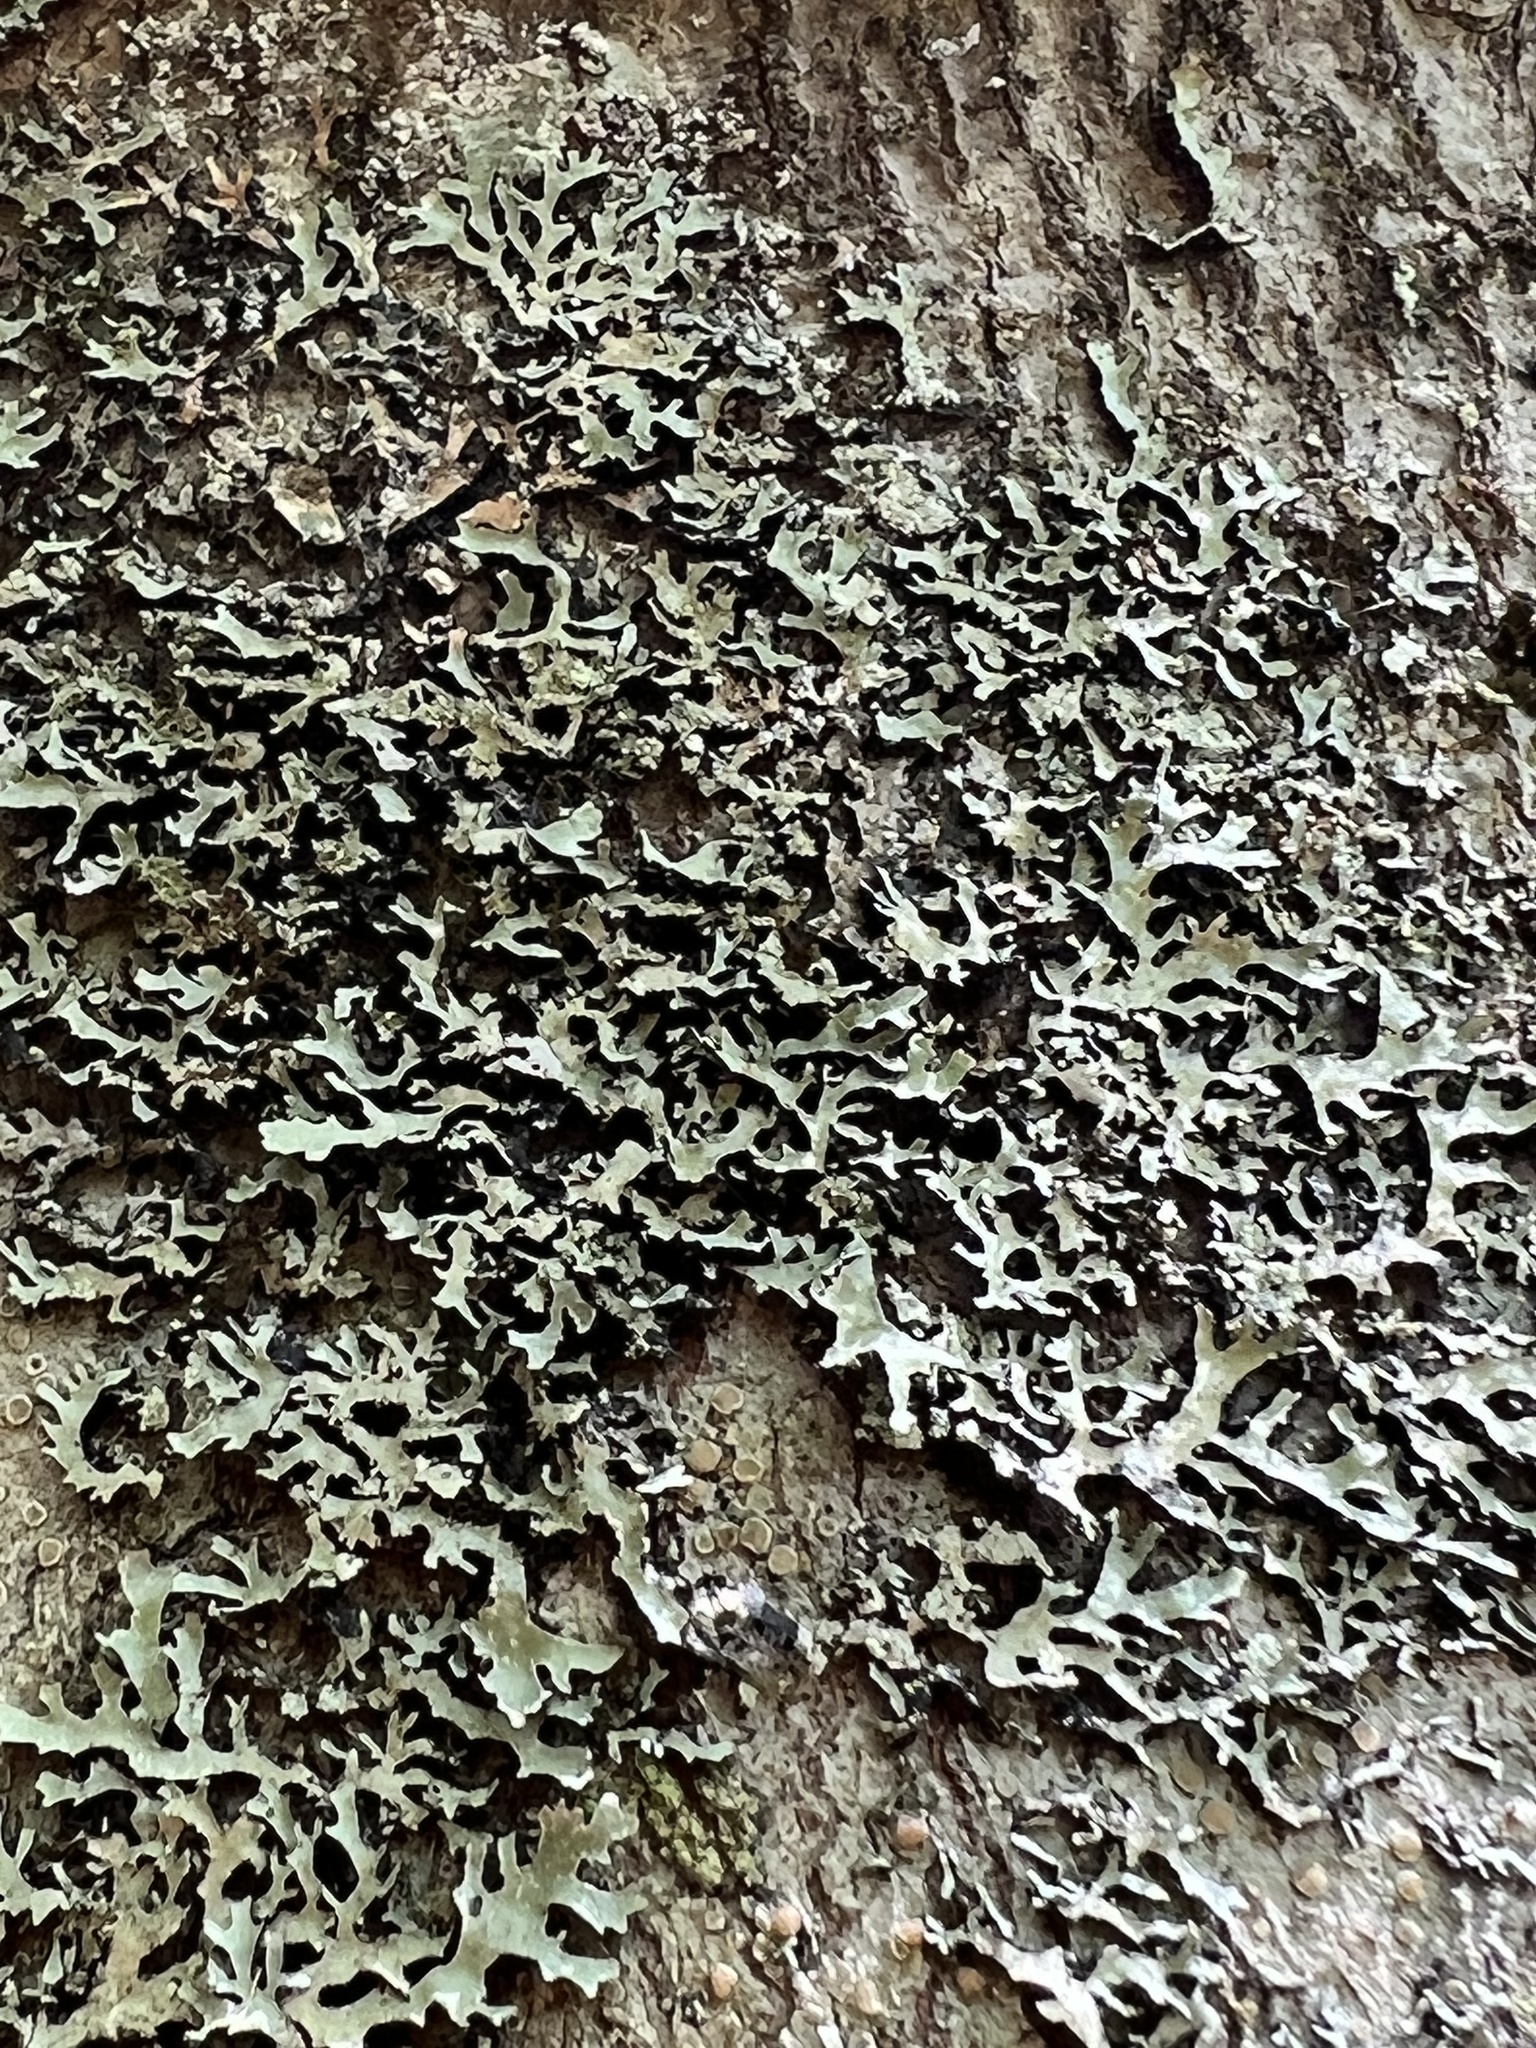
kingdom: Fungi
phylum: Ascomycota
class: Lecanoromycetes
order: Lecanorales
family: Parmeliaceae
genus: Parmelia
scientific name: Parmelia squarrosa
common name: Bottle brush shield lichen
